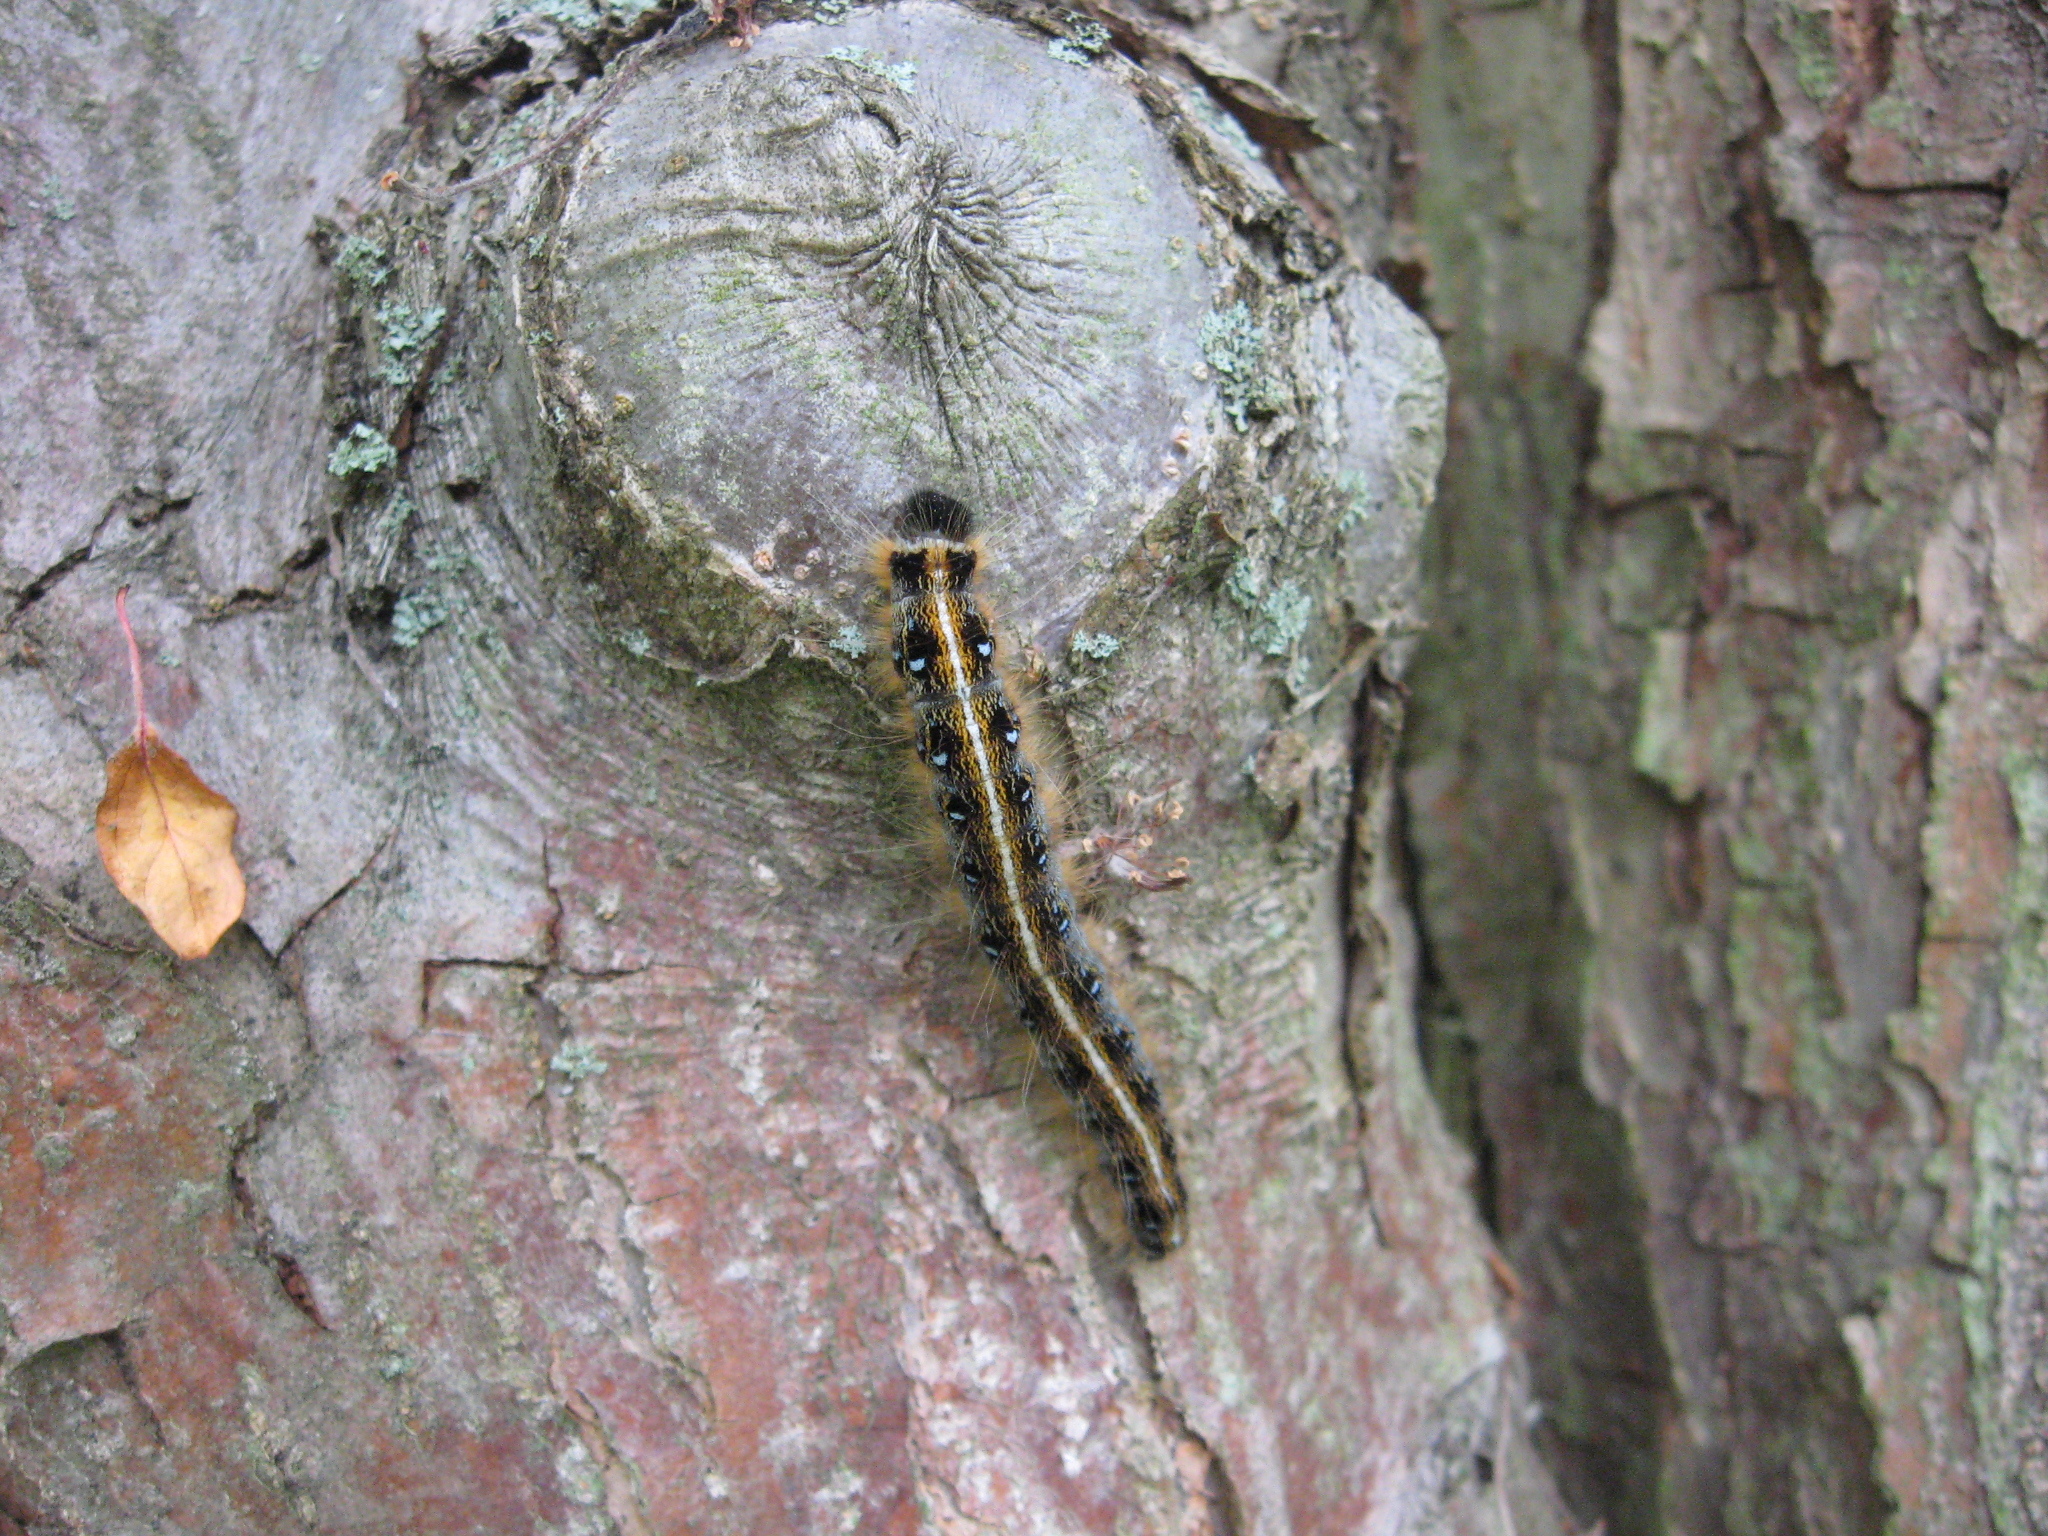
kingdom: Animalia
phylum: Arthropoda
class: Insecta
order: Lepidoptera
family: Lasiocampidae
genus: Malacosoma
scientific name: Malacosoma americana
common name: Eastern tent caterpillar moth
